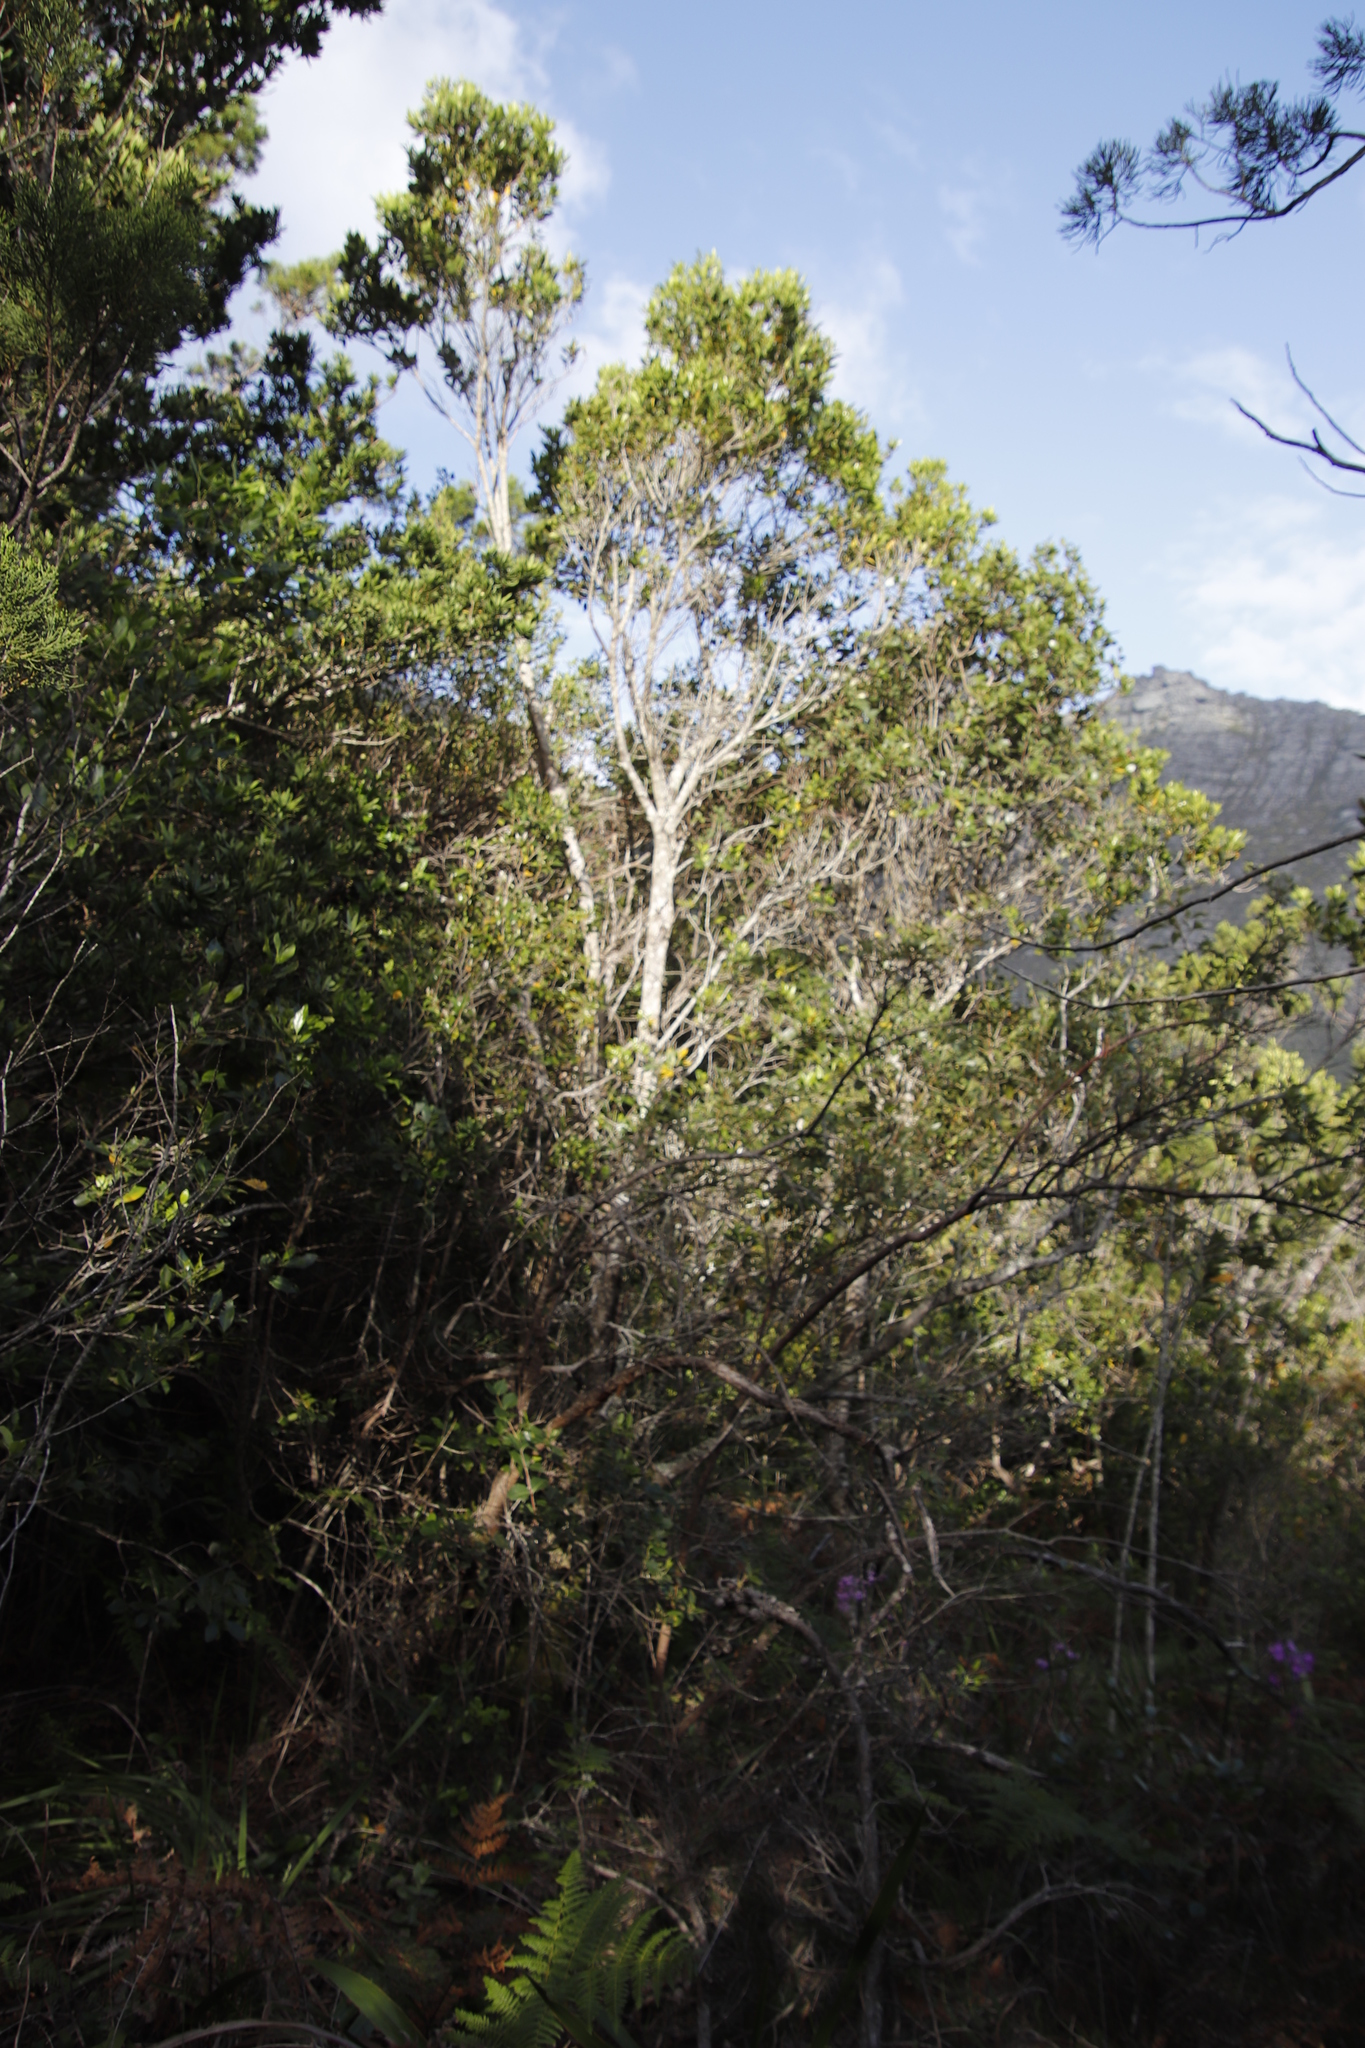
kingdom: Plantae
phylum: Tracheophyta
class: Magnoliopsida
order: Lamiales
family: Oleaceae
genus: Olea
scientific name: Olea capensis
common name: Black ironwood
